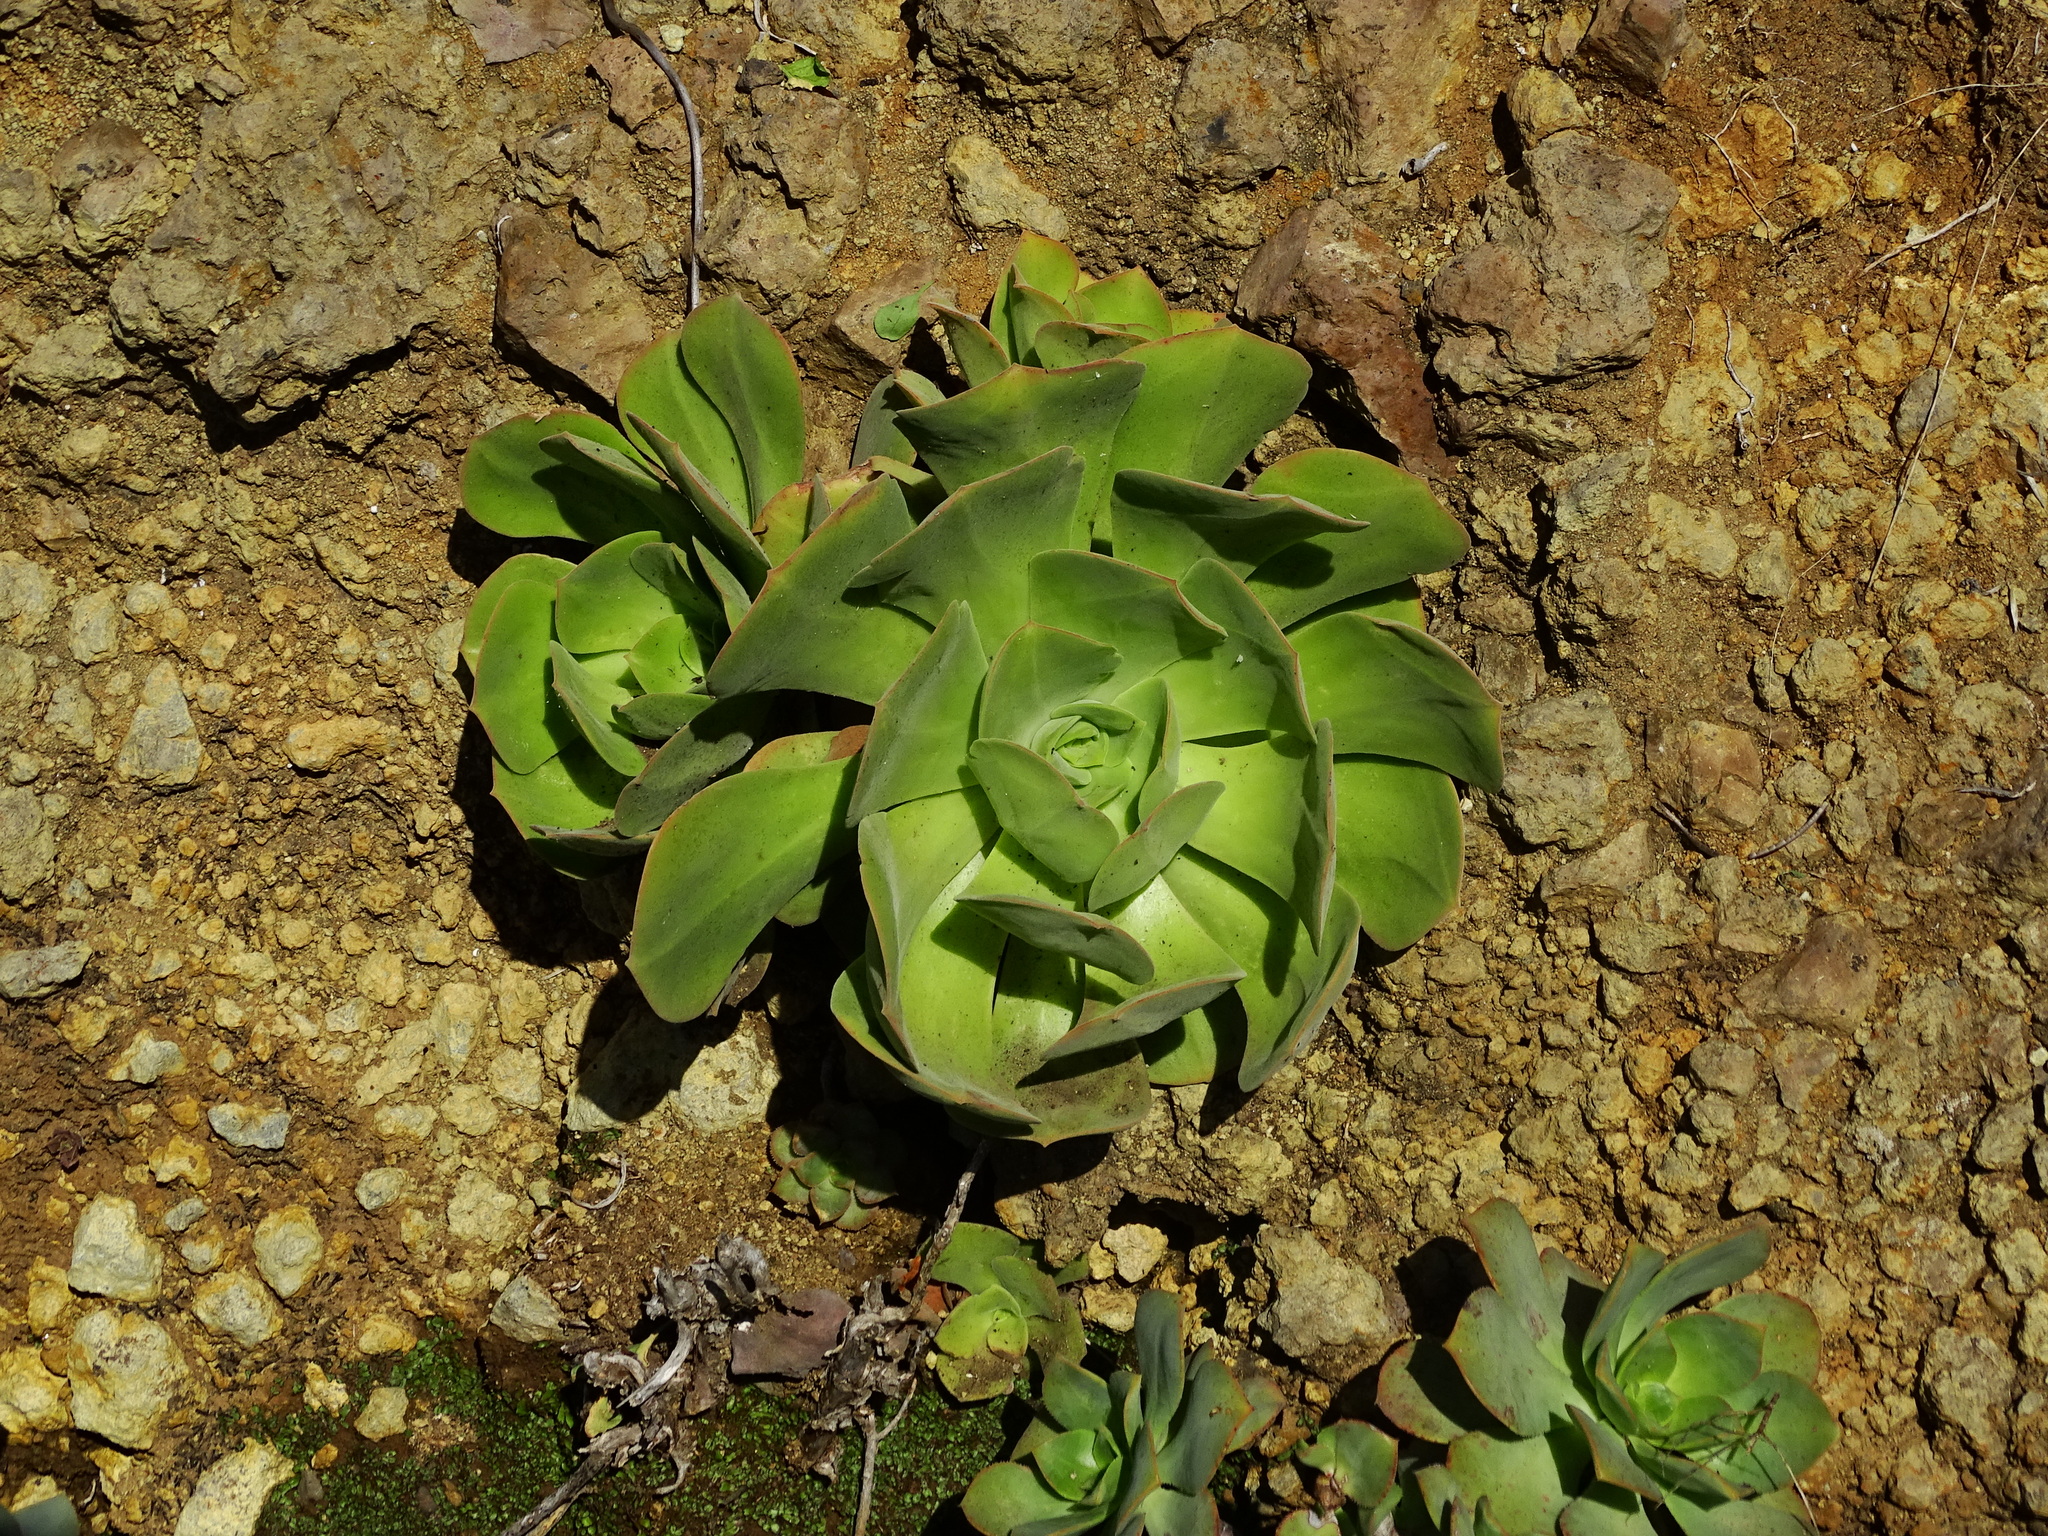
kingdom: Plantae
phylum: Tracheophyta
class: Magnoliopsida
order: Saxifragales
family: Crassulaceae
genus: Aeonium
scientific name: Aeonium canariense
